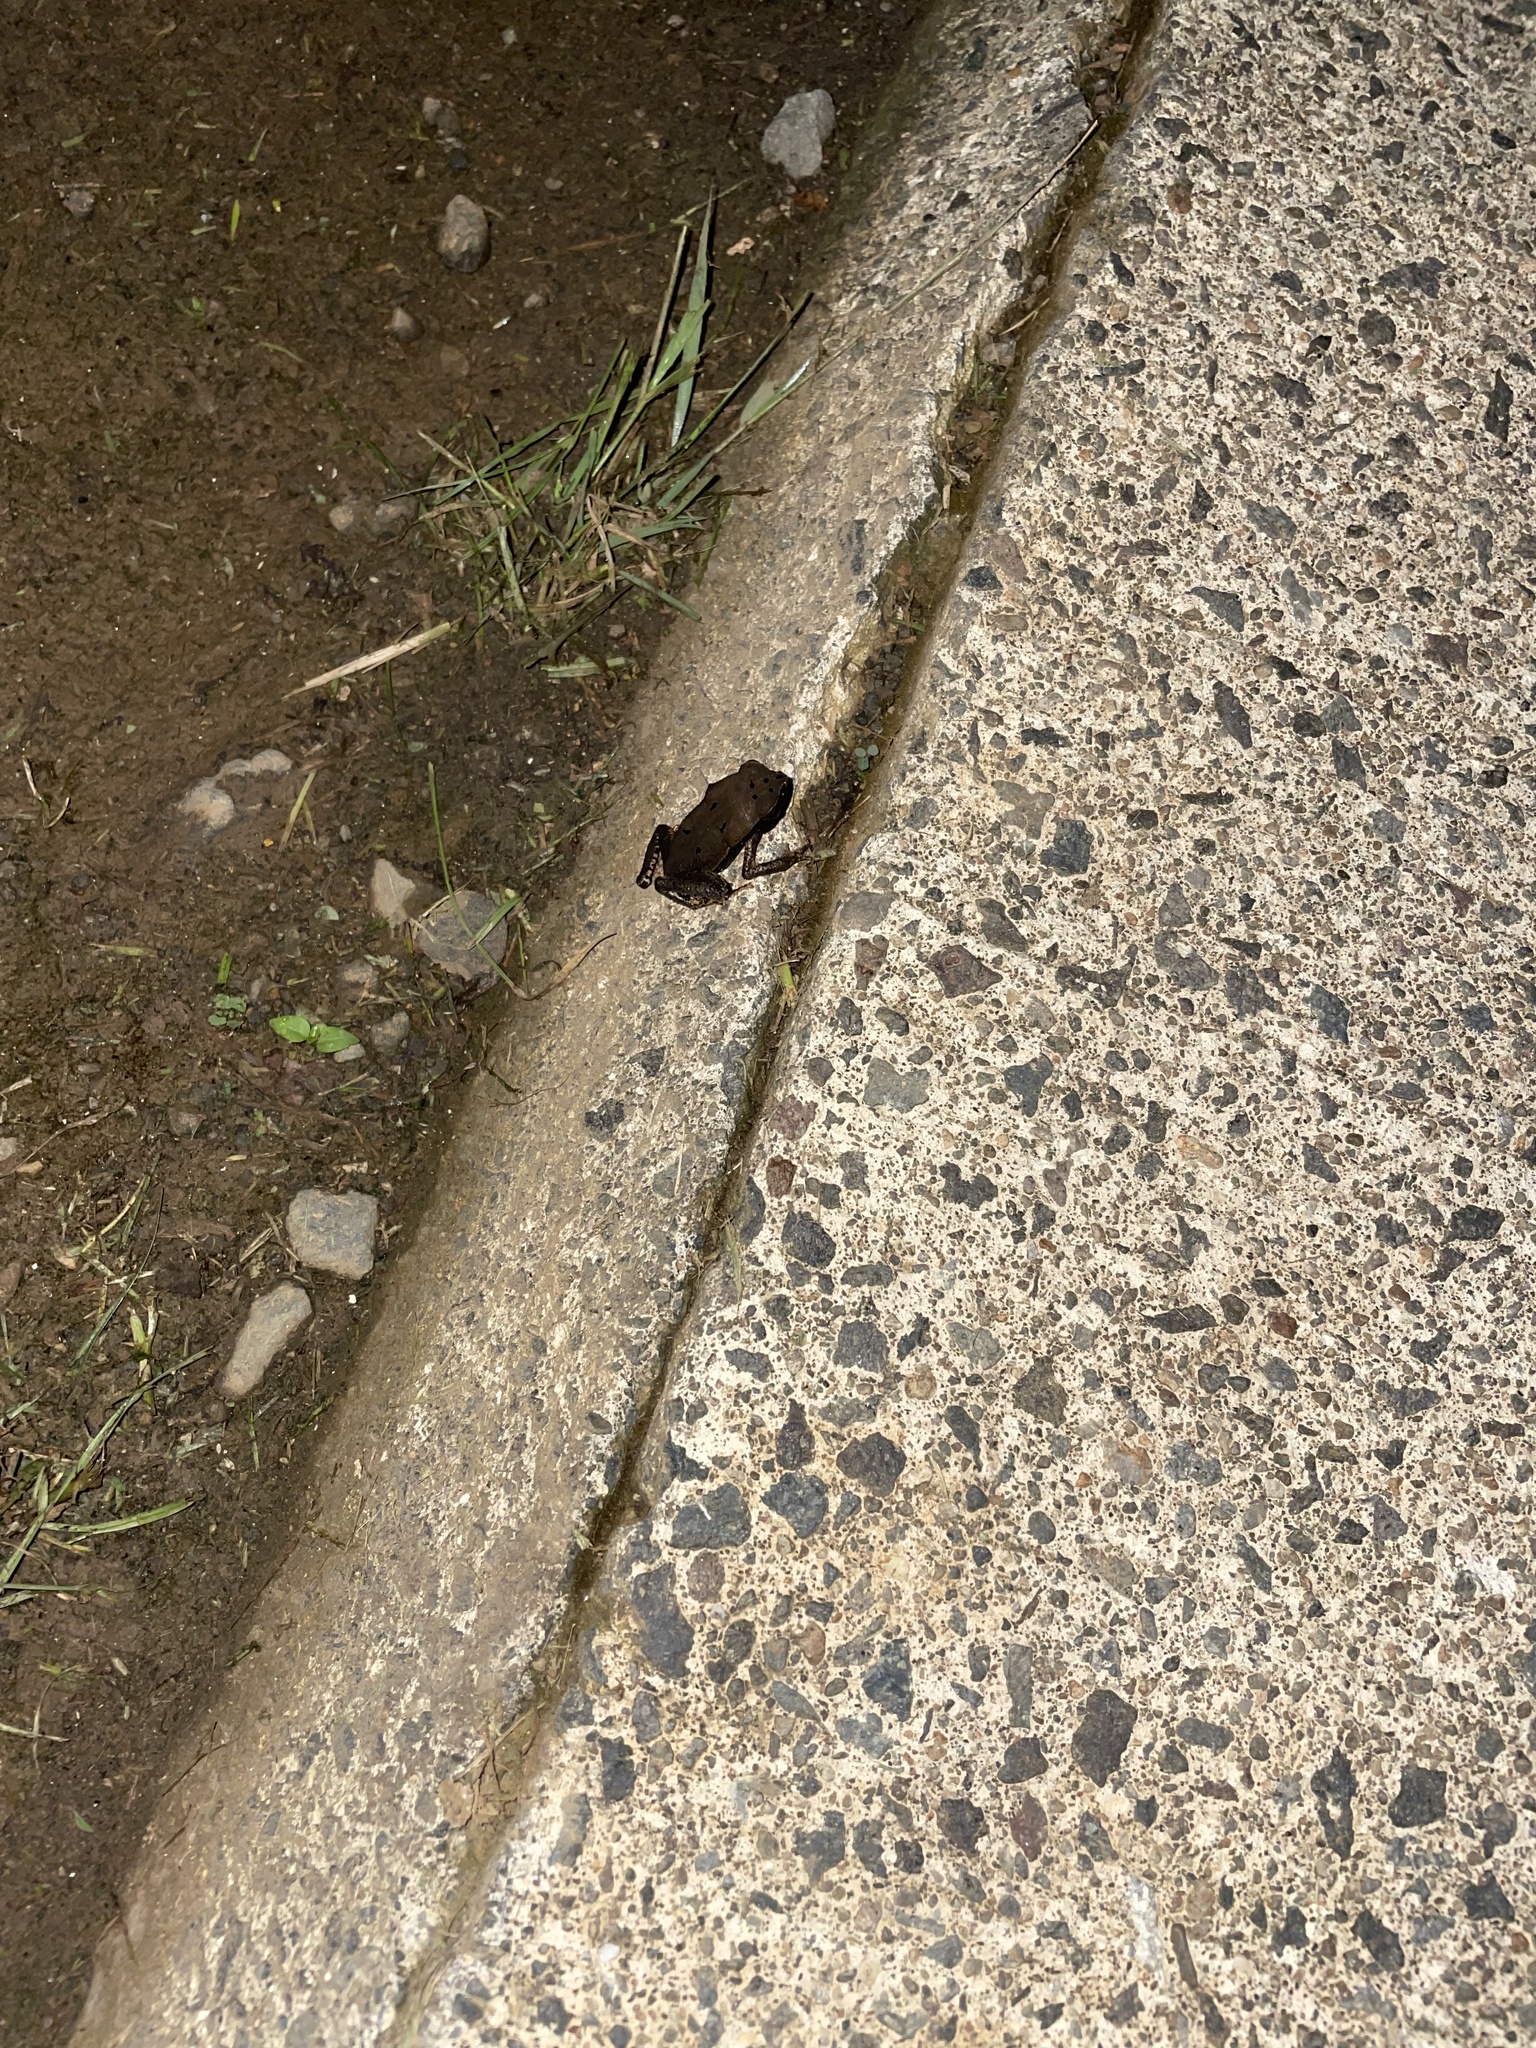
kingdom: Animalia
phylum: Chordata
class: Amphibia
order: Anura
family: Bufonidae
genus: Rhaebo
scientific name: Rhaebo haematiticus
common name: Truando toad
